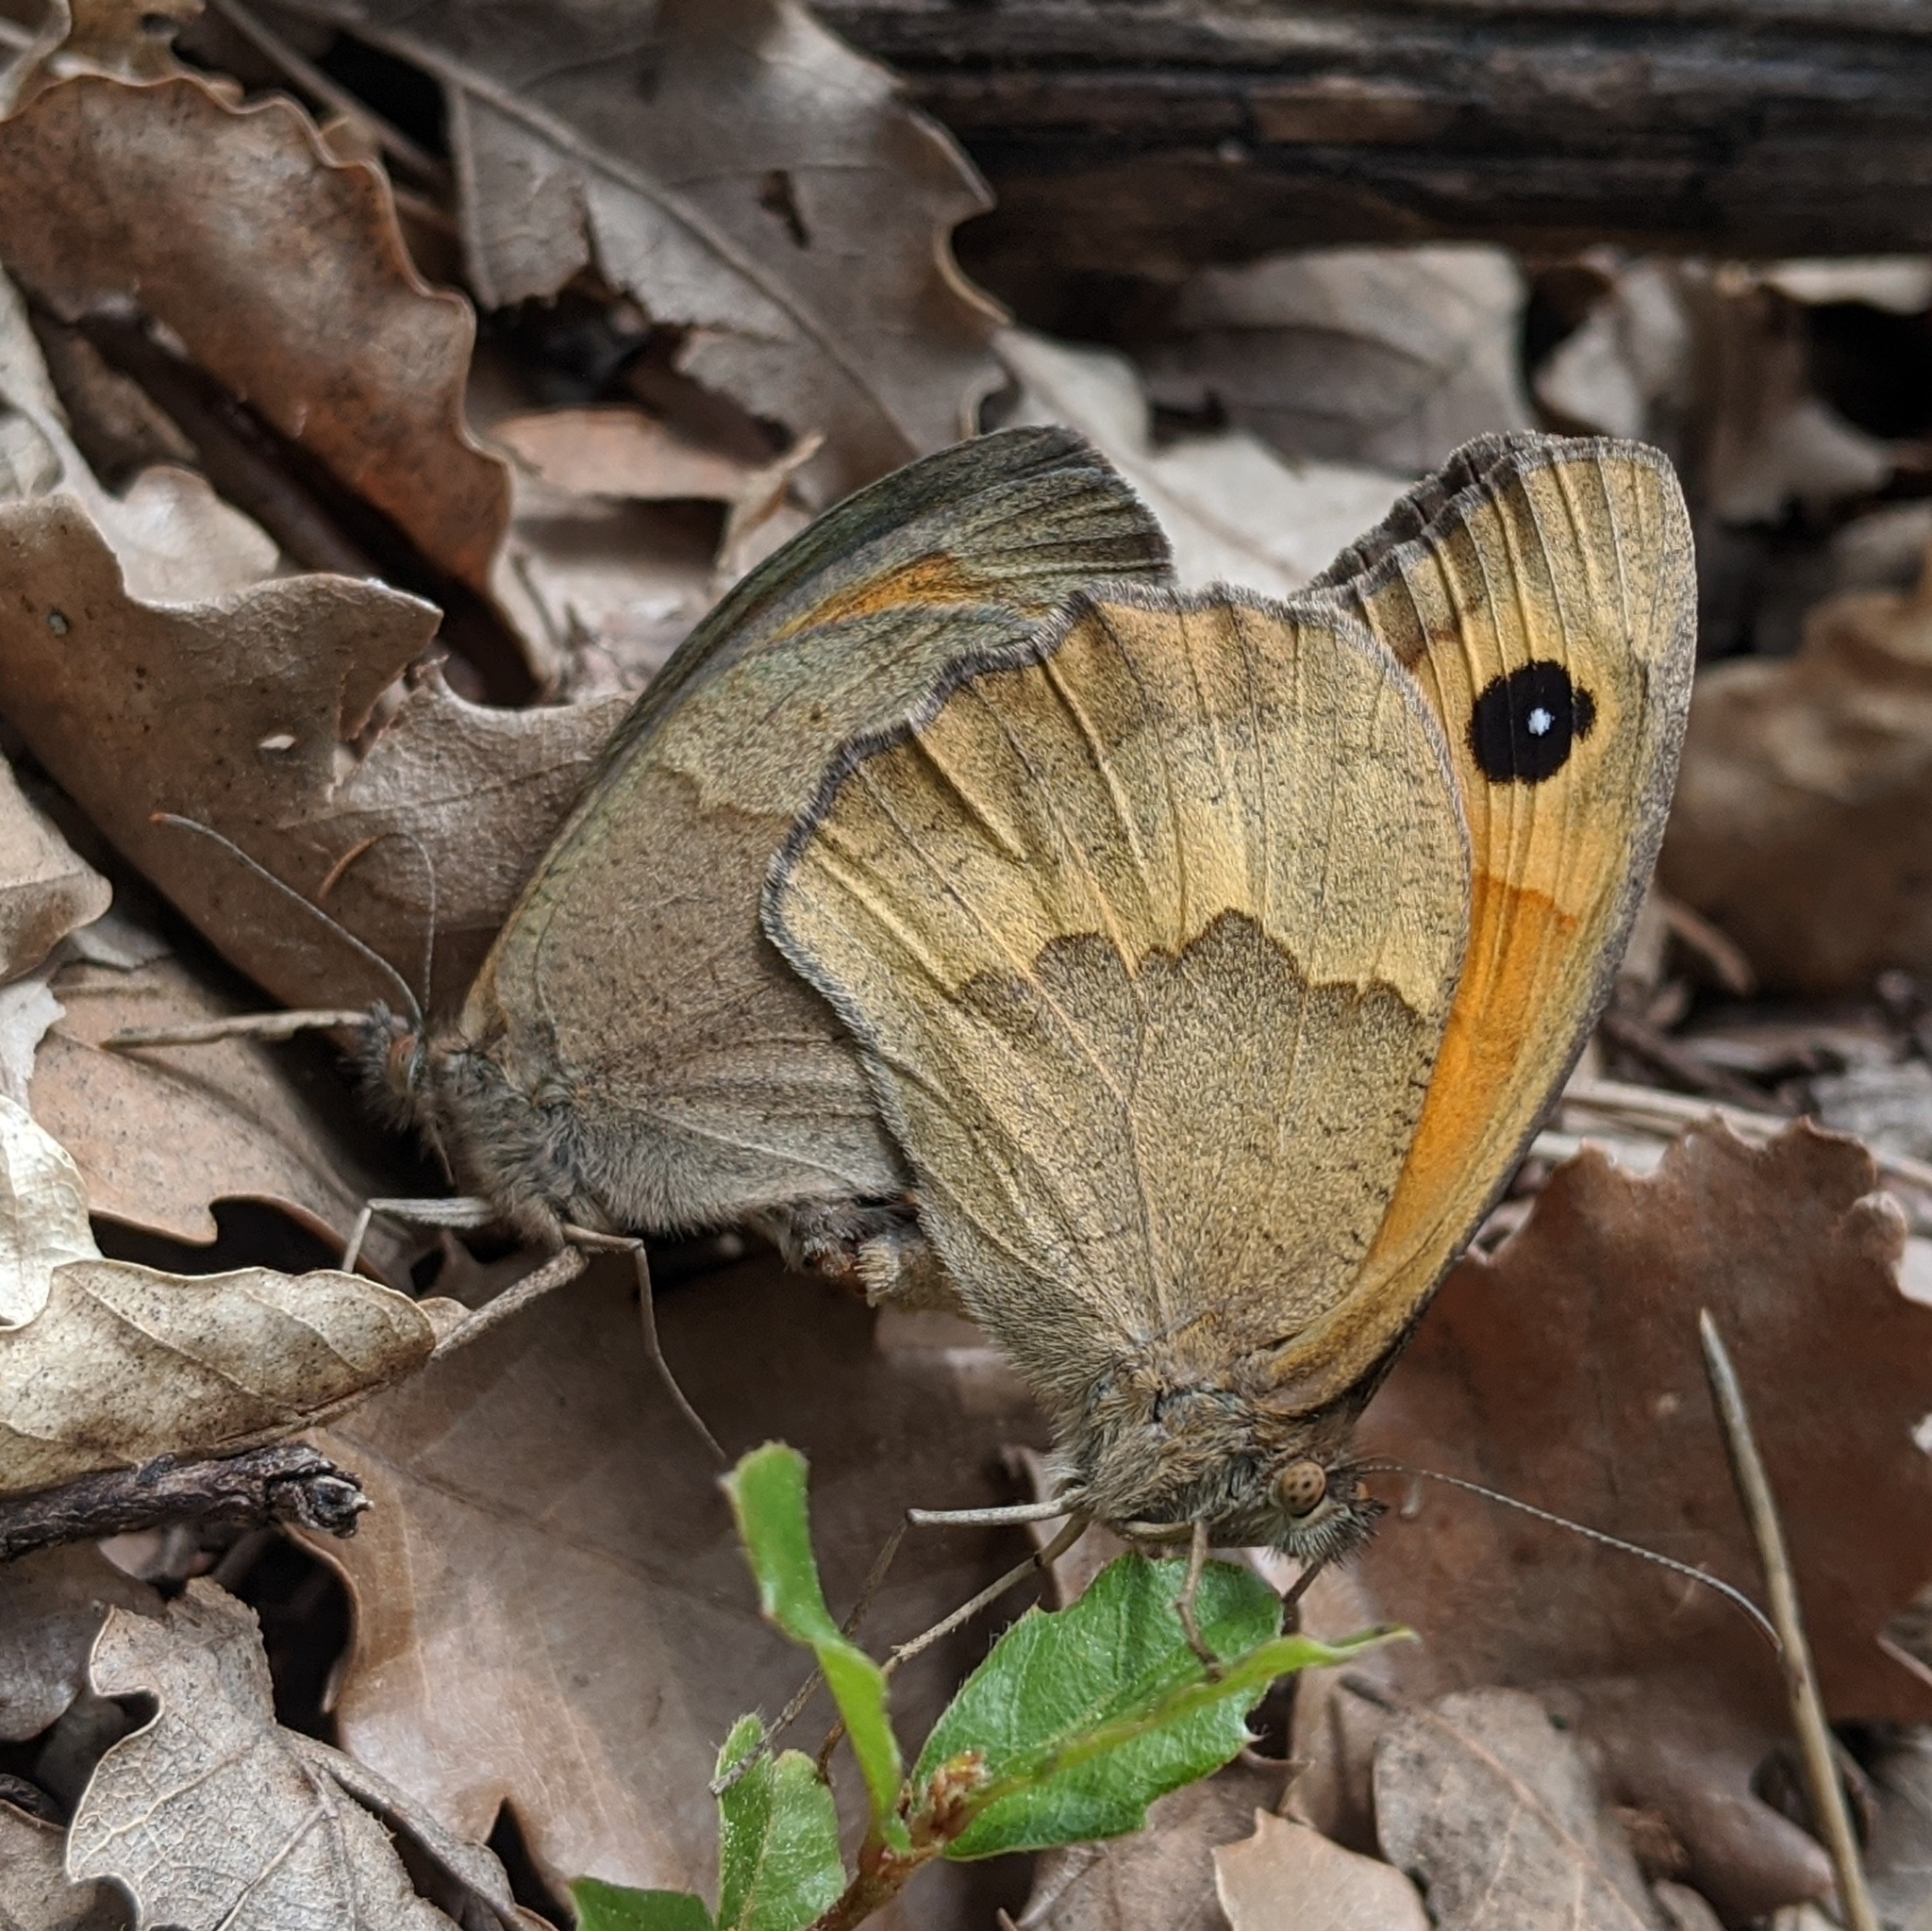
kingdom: Animalia
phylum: Arthropoda
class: Insecta
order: Lepidoptera
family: Nymphalidae
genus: Maniola
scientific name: Maniola jurtina
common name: Meadow brown
